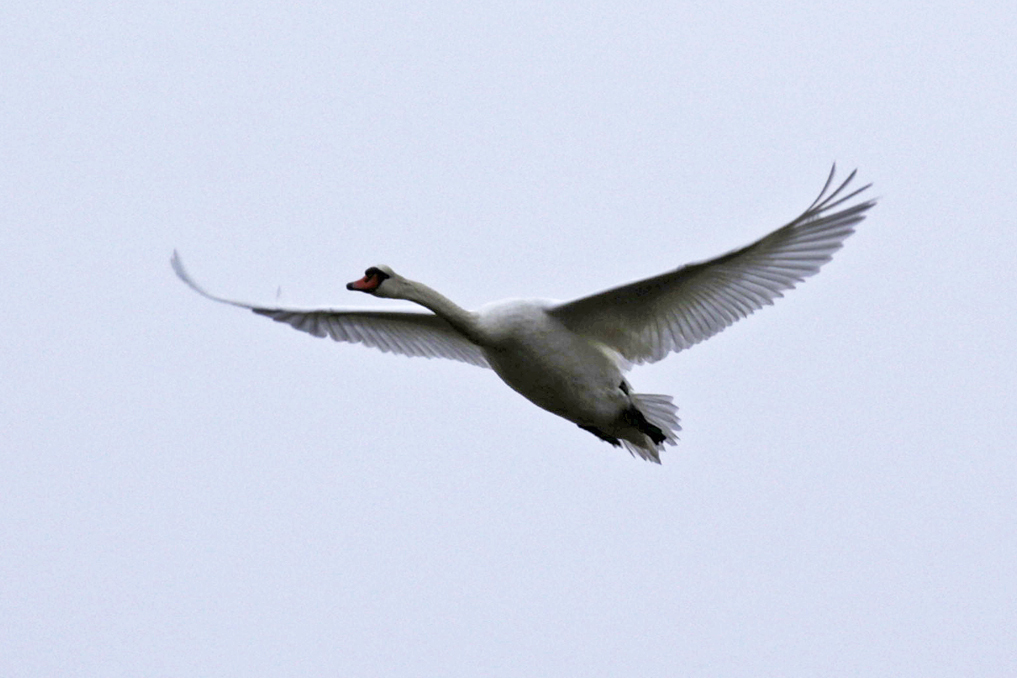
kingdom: Animalia
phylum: Chordata
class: Aves
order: Anseriformes
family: Anatidae
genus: Cygnus
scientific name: Cygnus olor
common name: Mute swan
